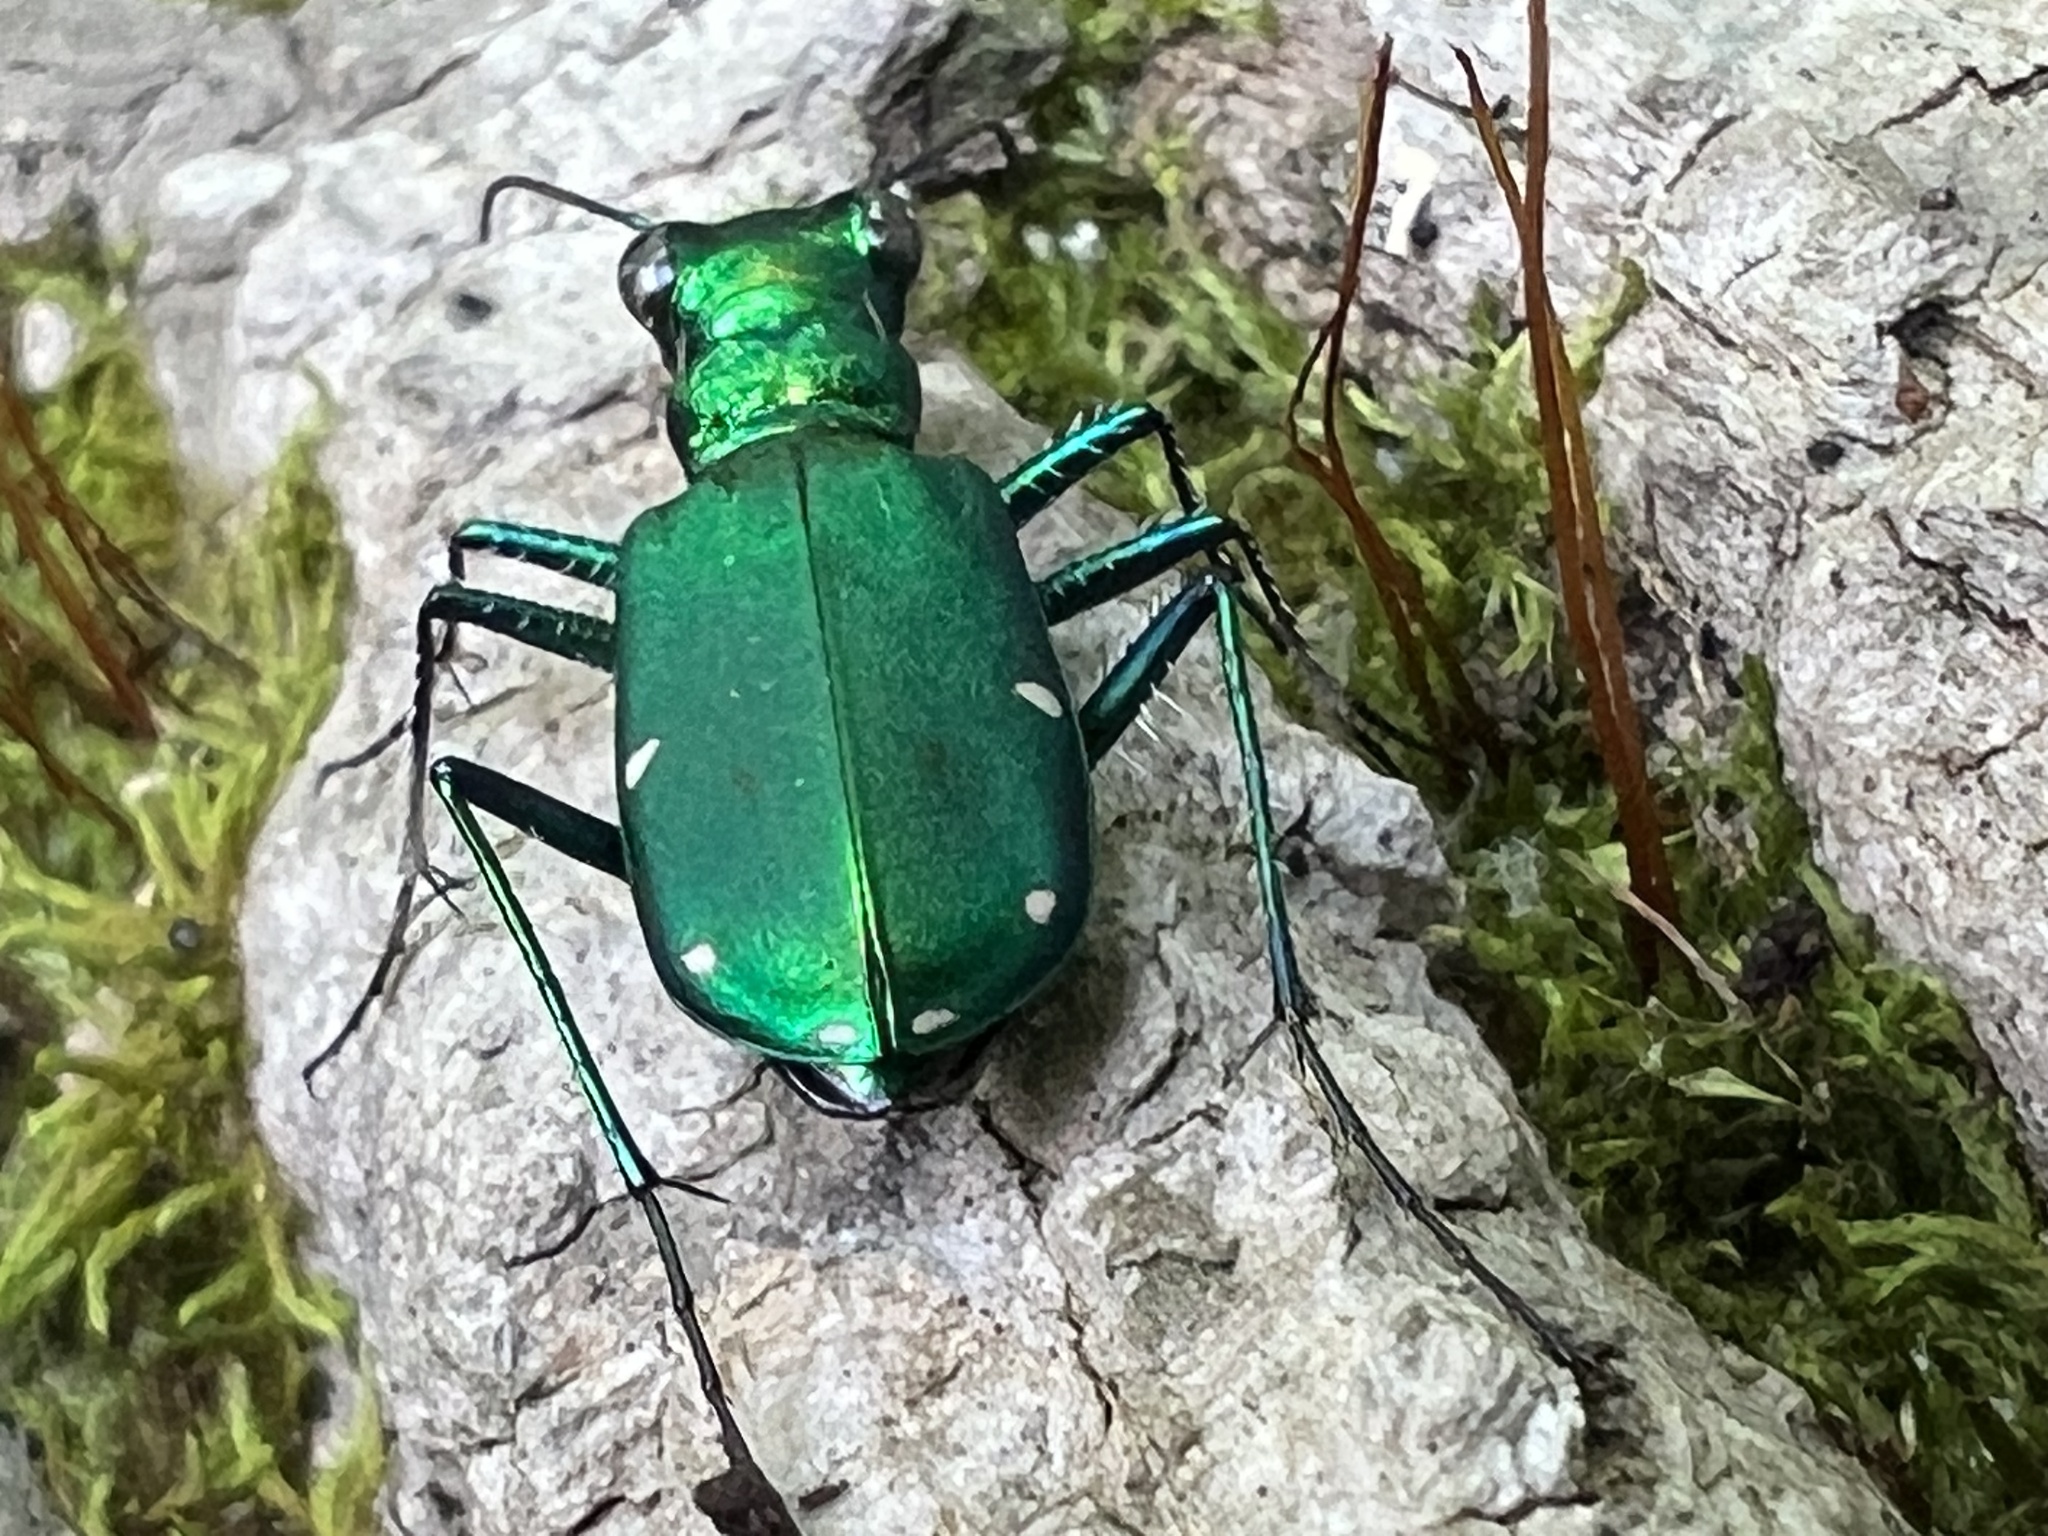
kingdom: Animalia
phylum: Arthropoda
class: Insecta
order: Coleoptera
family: Carabidae
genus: Cicindela
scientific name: Cicindela sexguttata
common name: Six-spotted tiger beetle
